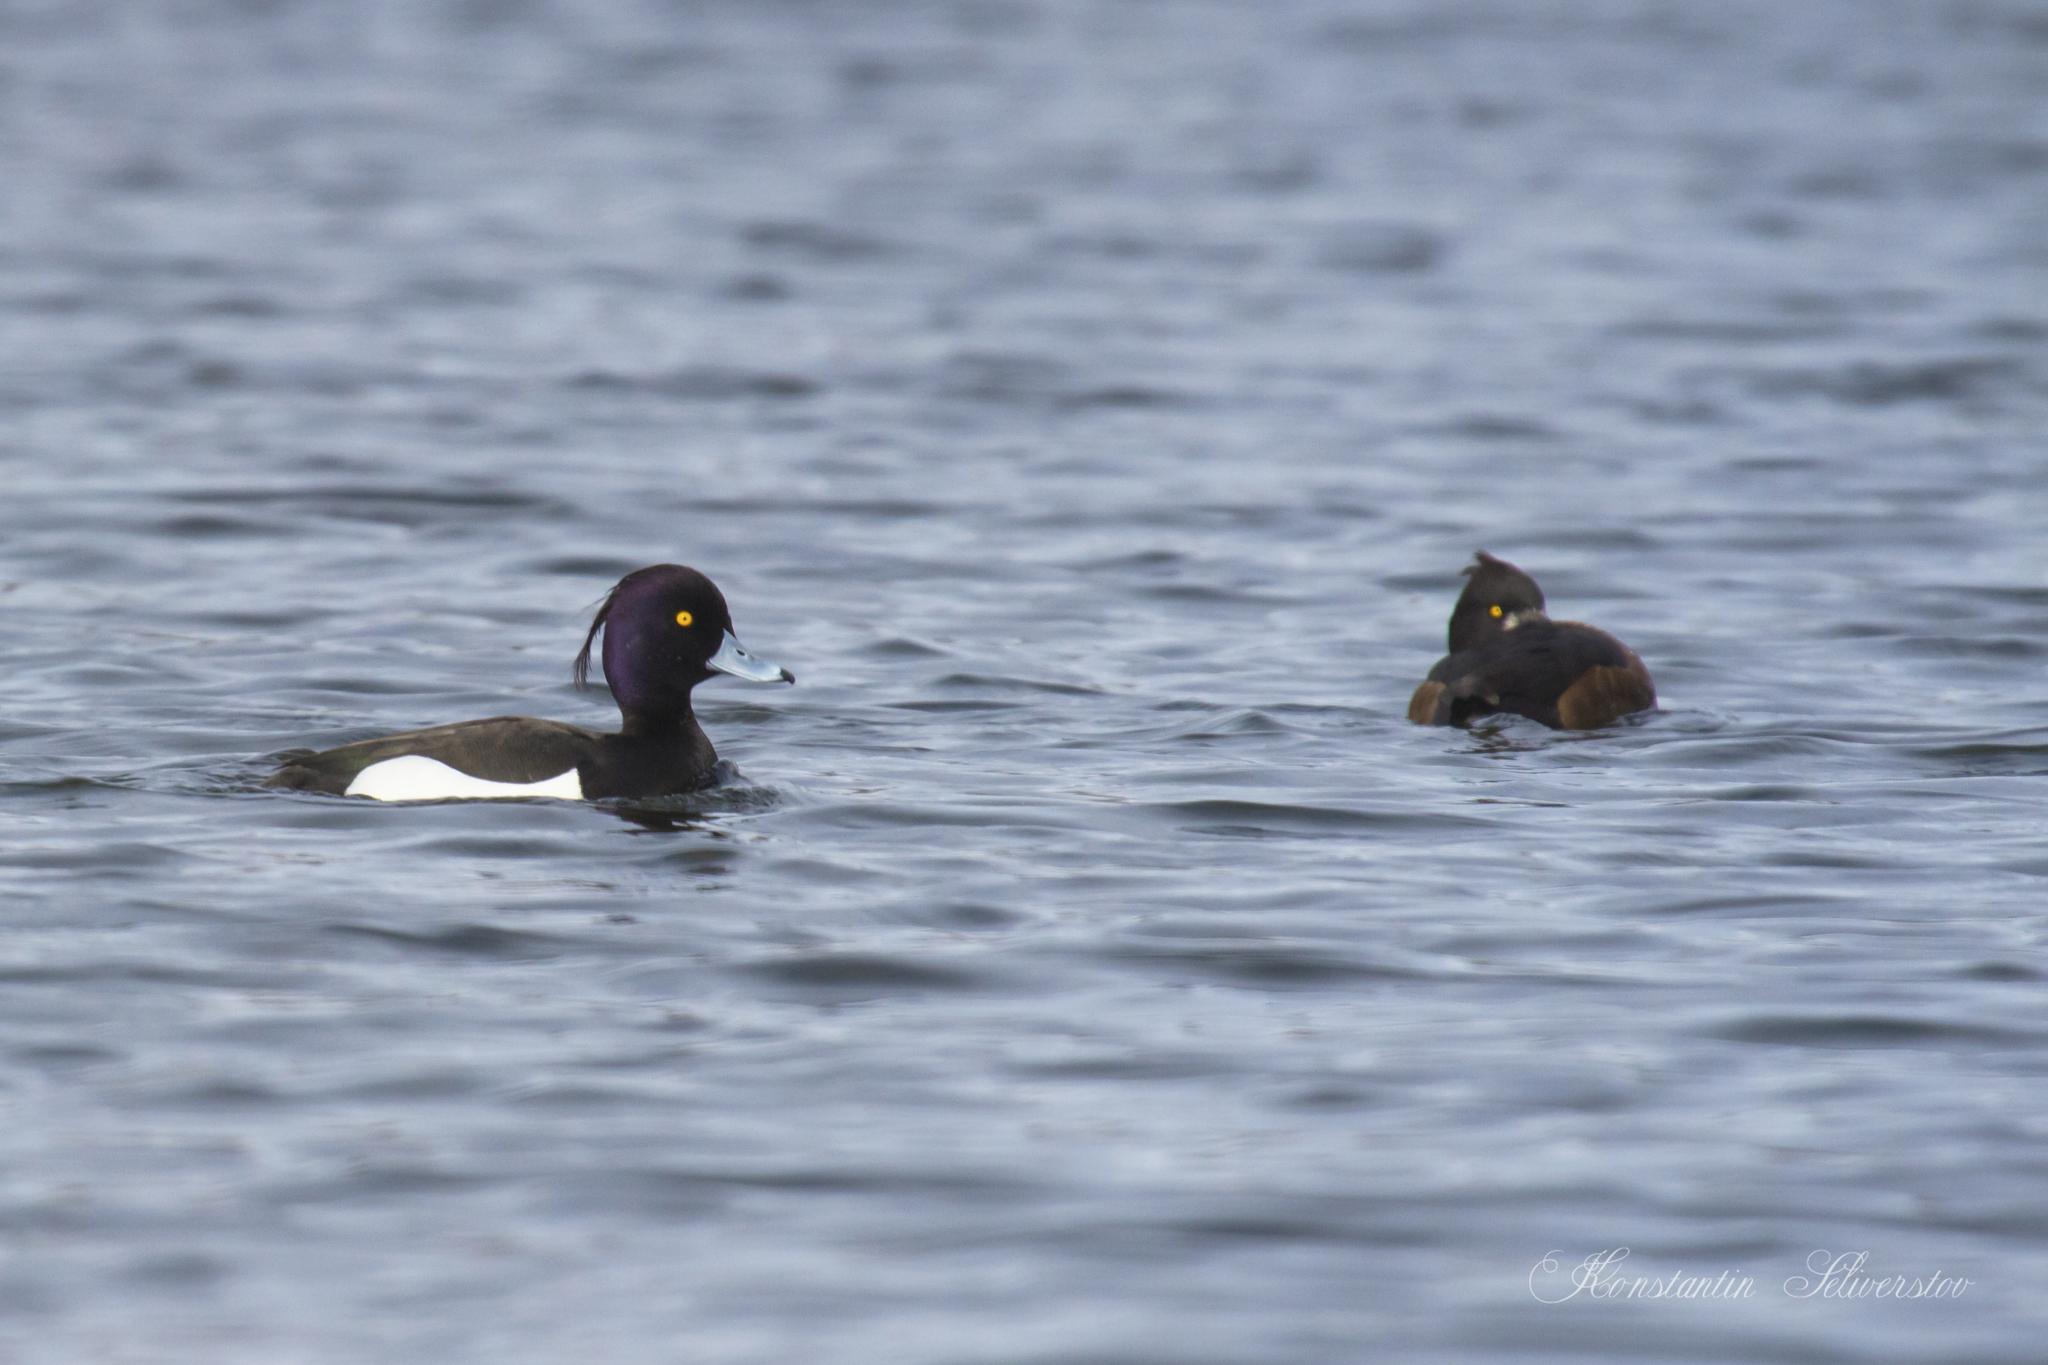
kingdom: Animalia
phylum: Chordata
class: Aves
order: Anseriformes
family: Anatidae
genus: Aythya
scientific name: Aythya fuligula
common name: Tufted duck
